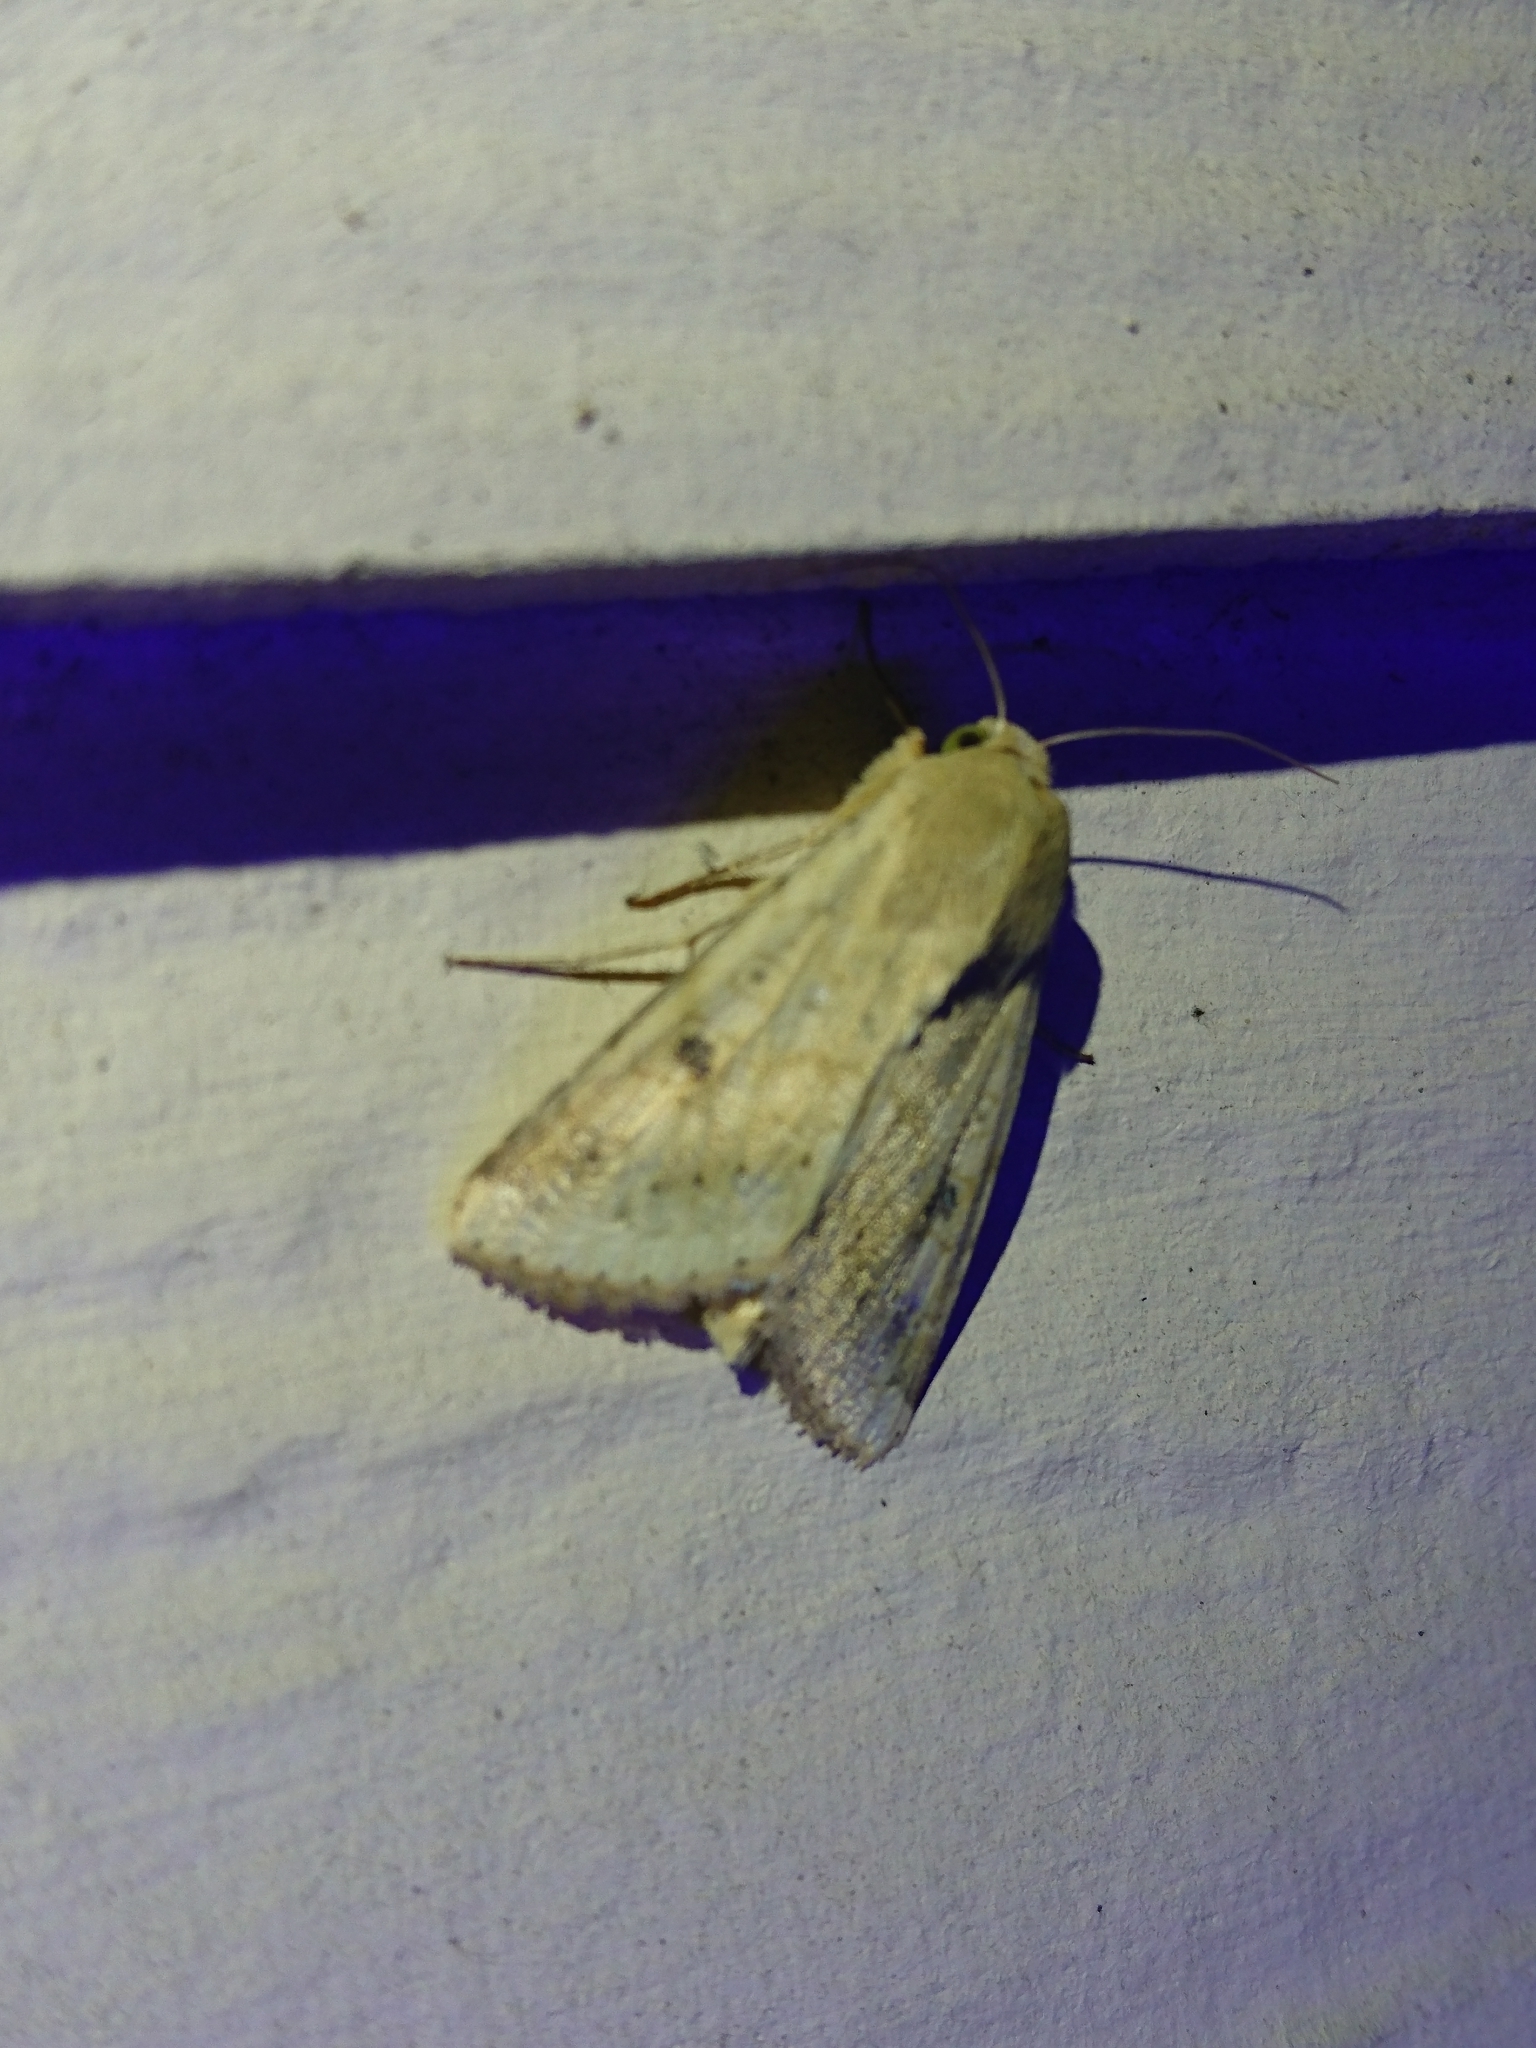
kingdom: Animalia
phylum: Arthropoda
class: Insecta
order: Lepidoptera
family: Noctuidae
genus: Helicoverpa
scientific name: Helicoverpa zea
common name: Bollworm
